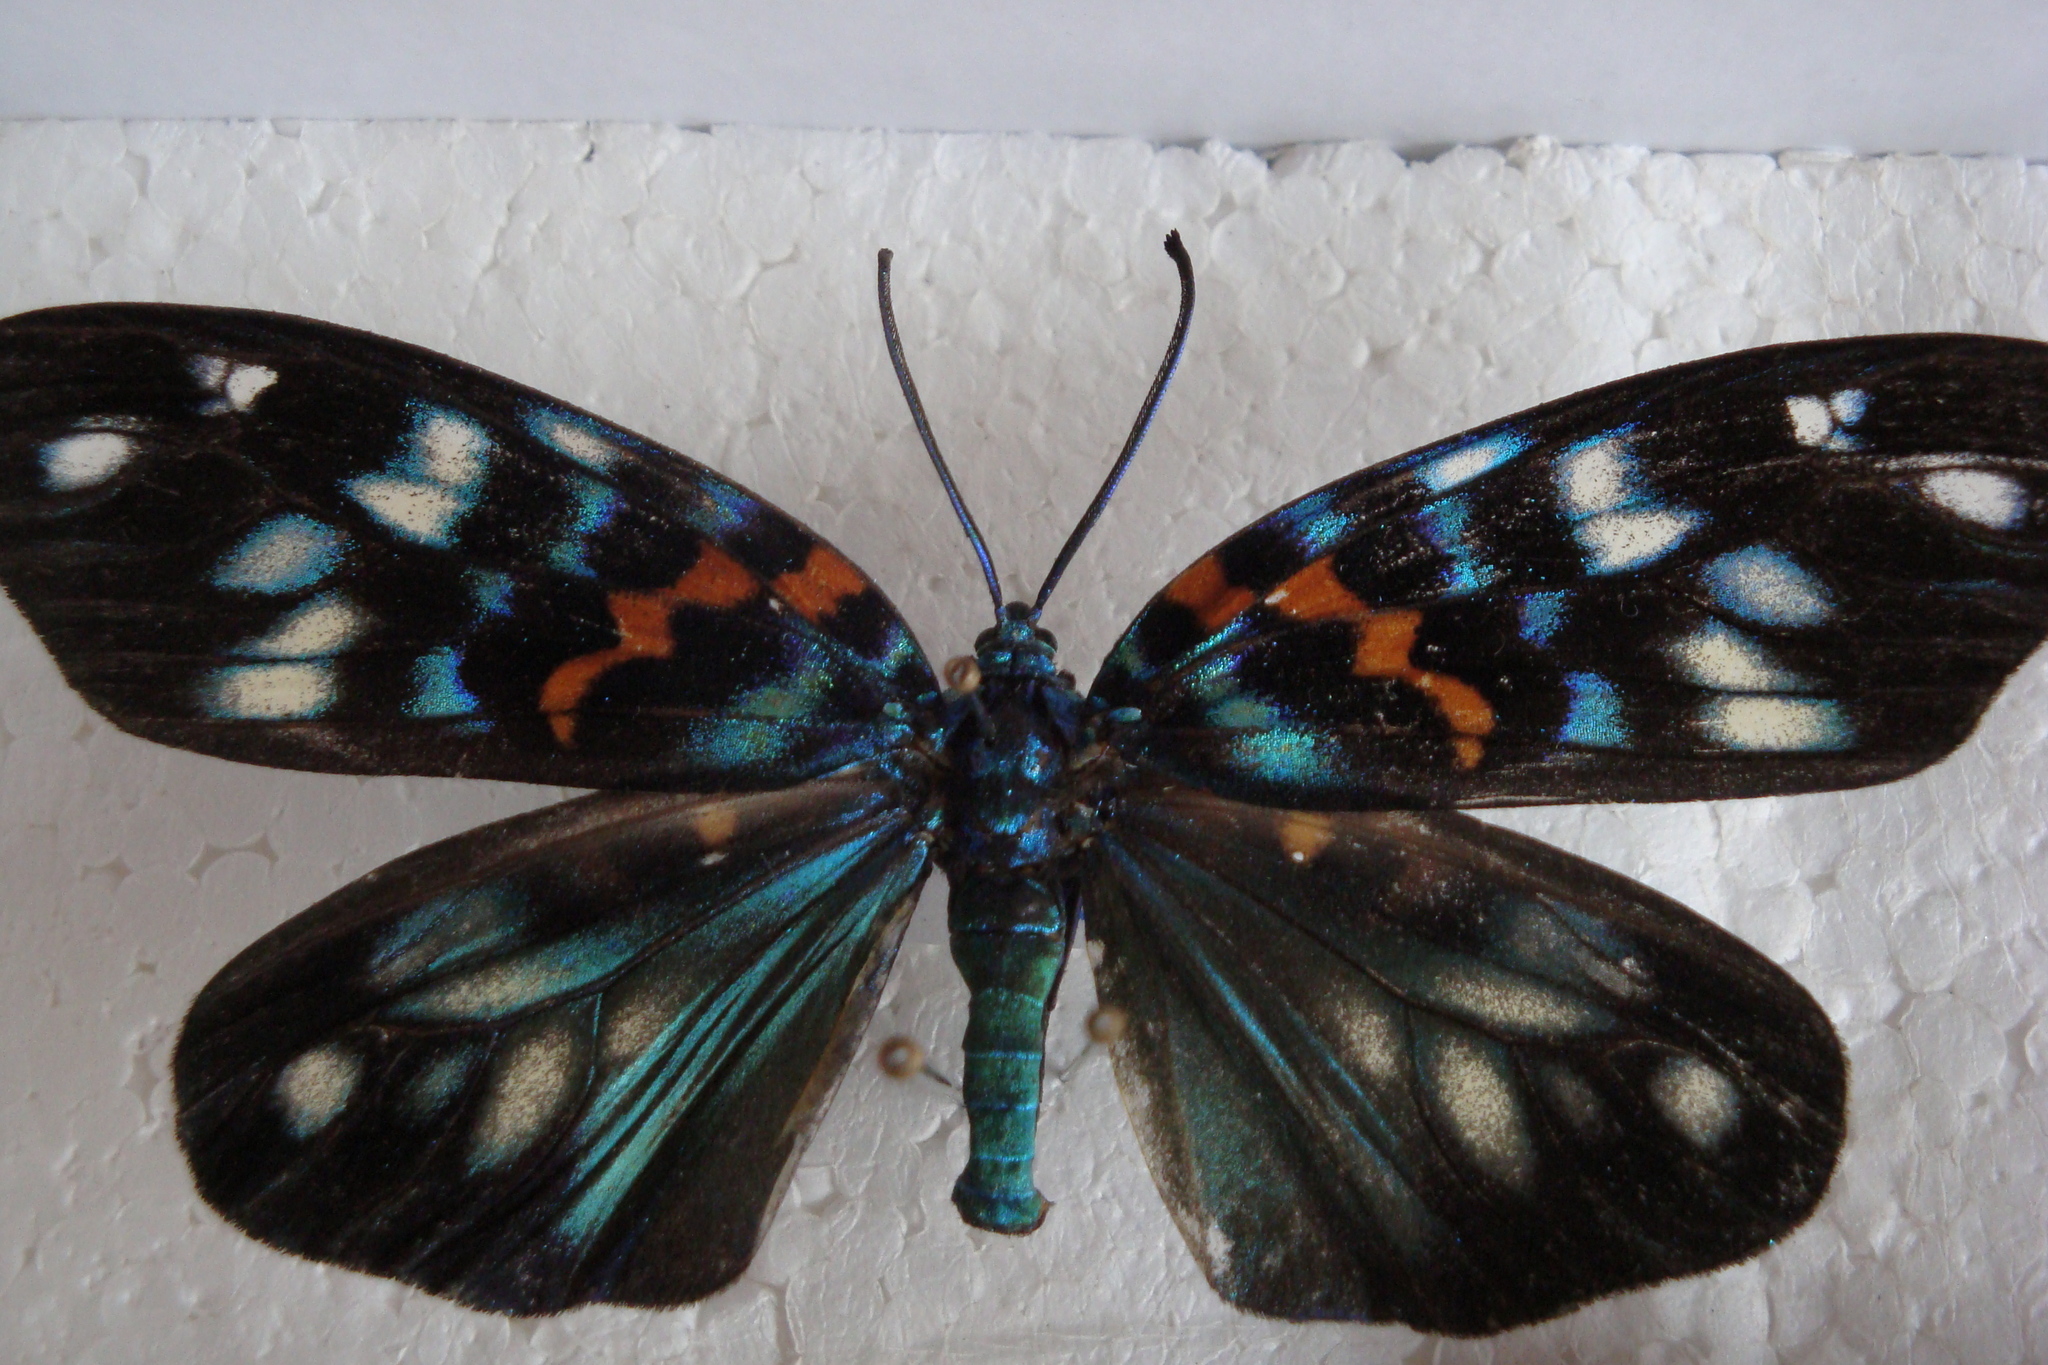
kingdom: Animalia
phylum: Arthropoda
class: Insecta
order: Lepidoptera
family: Zygaenidae
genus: Erasmia
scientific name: Erasmia pulchella
